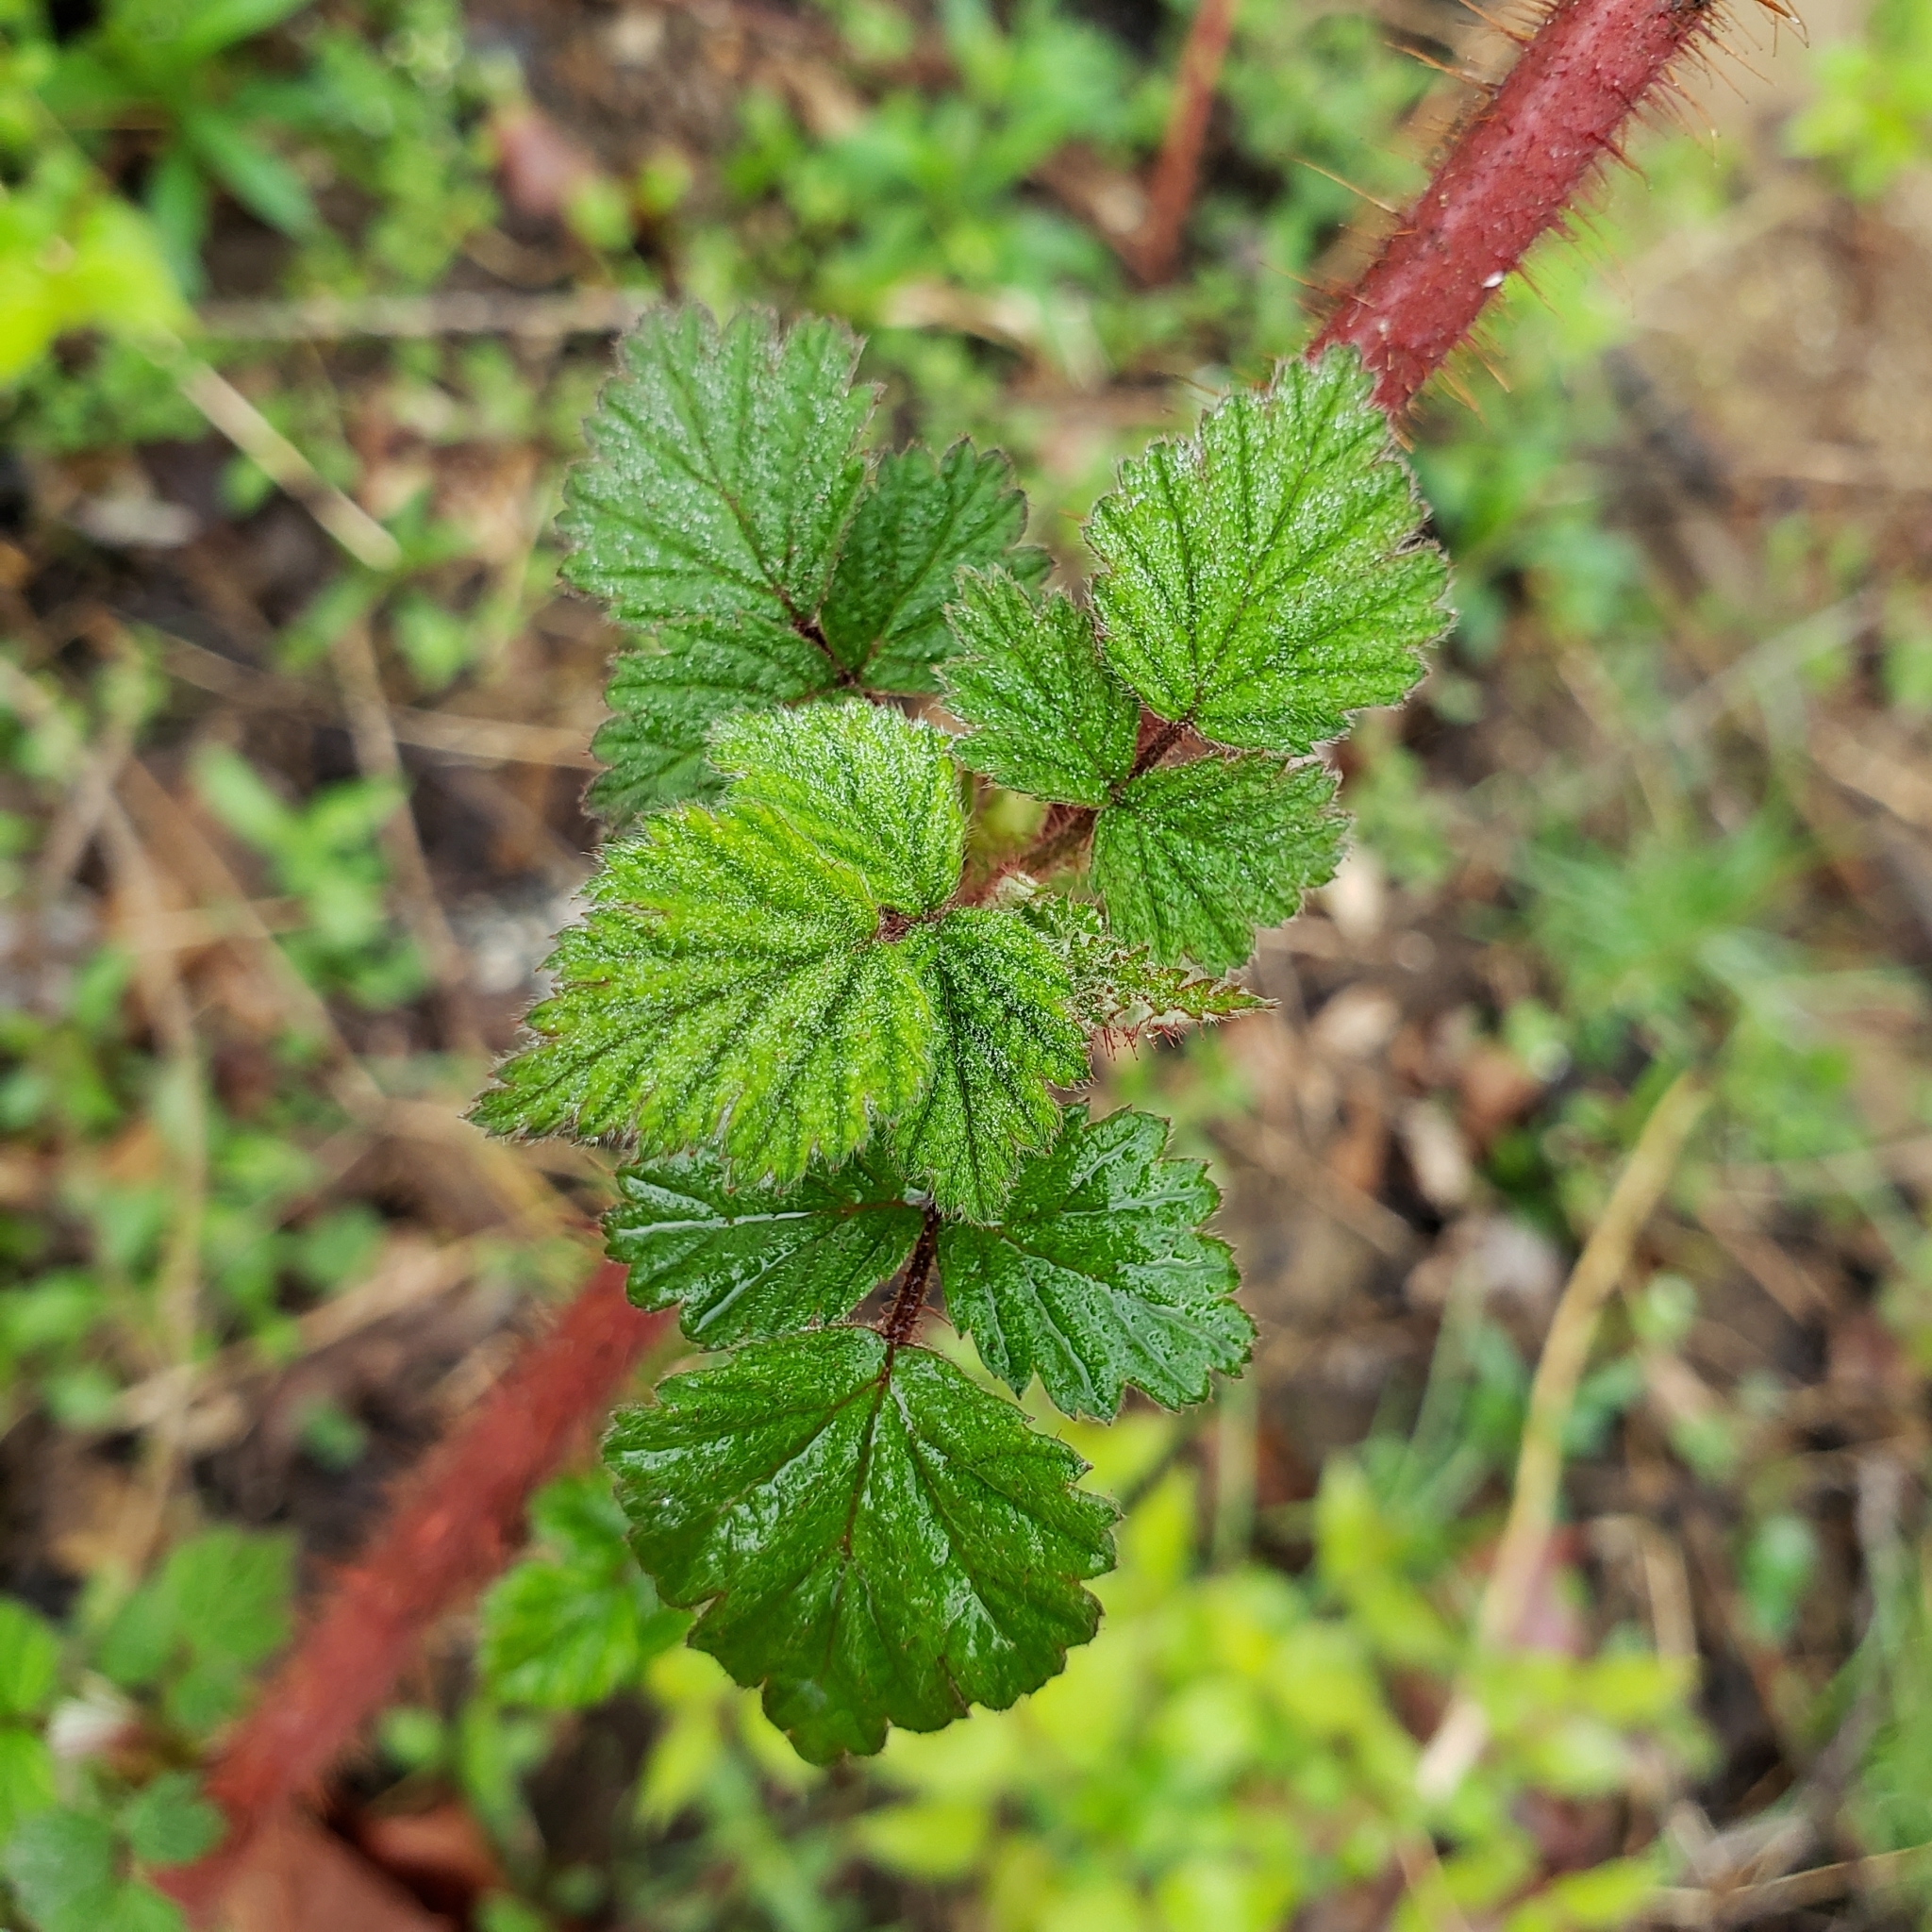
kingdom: Plantae
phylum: Tracheophyta
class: Magnoliopsida
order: Rosales
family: Rosaceae
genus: Rubus
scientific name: Rubus phoenicolasius
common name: Japanese wineberry
